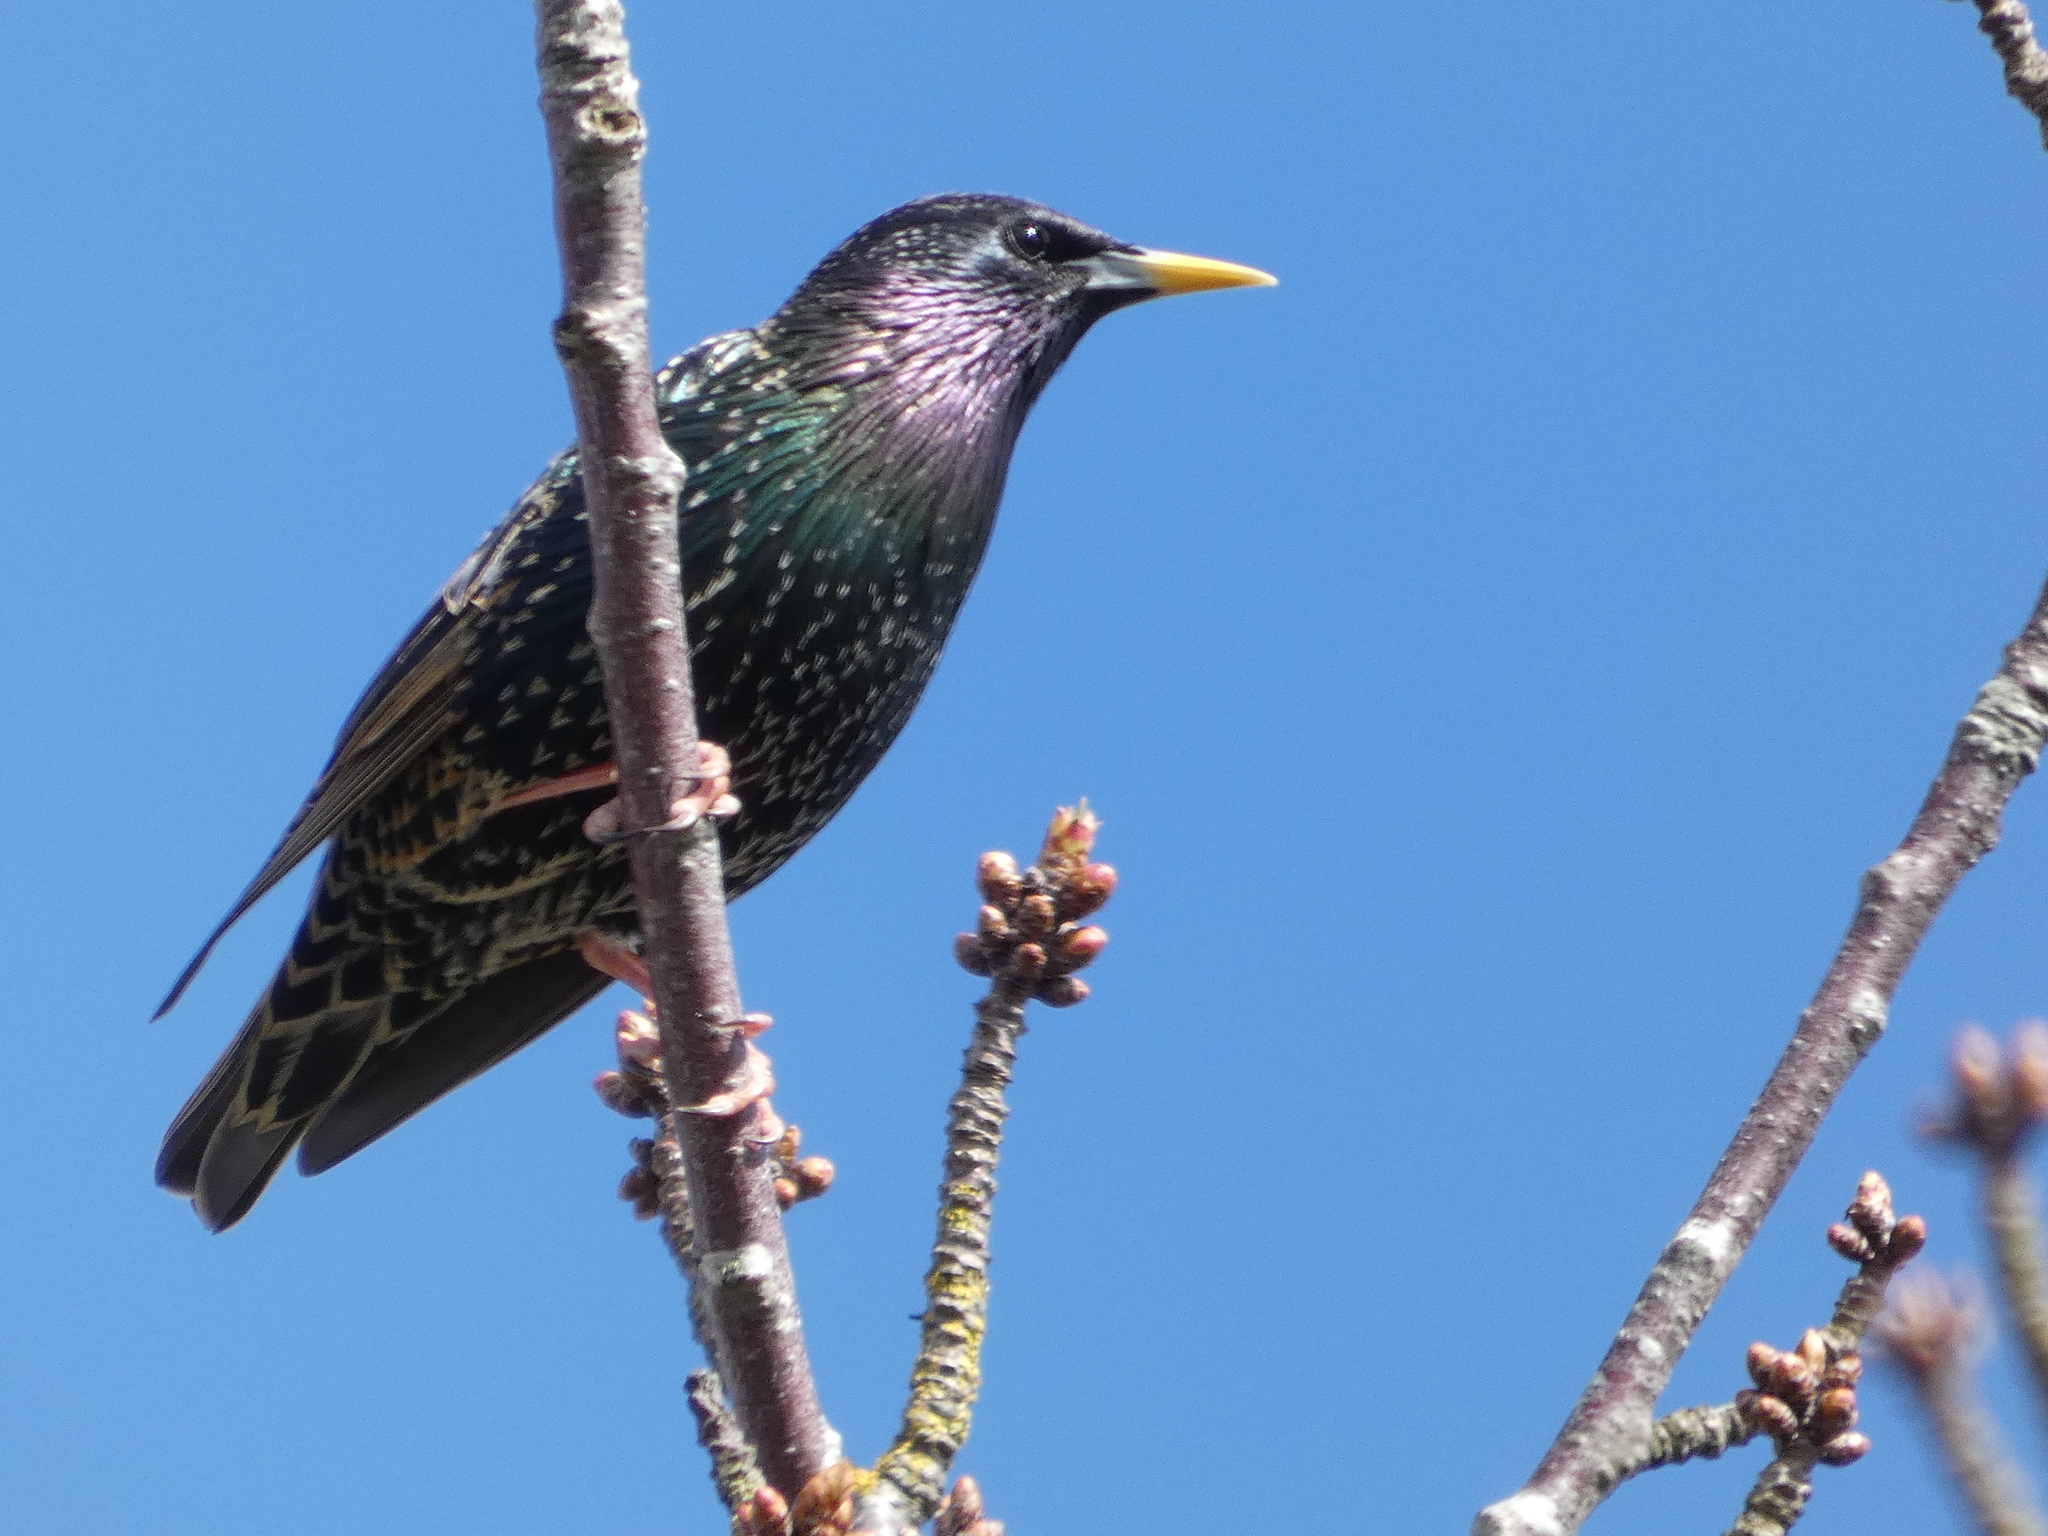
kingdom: Animalia
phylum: Chordata
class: Aves
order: Passeriformes
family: Sturnidae
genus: Sturnus
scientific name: Sturnus vulgaris
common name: Common starling
